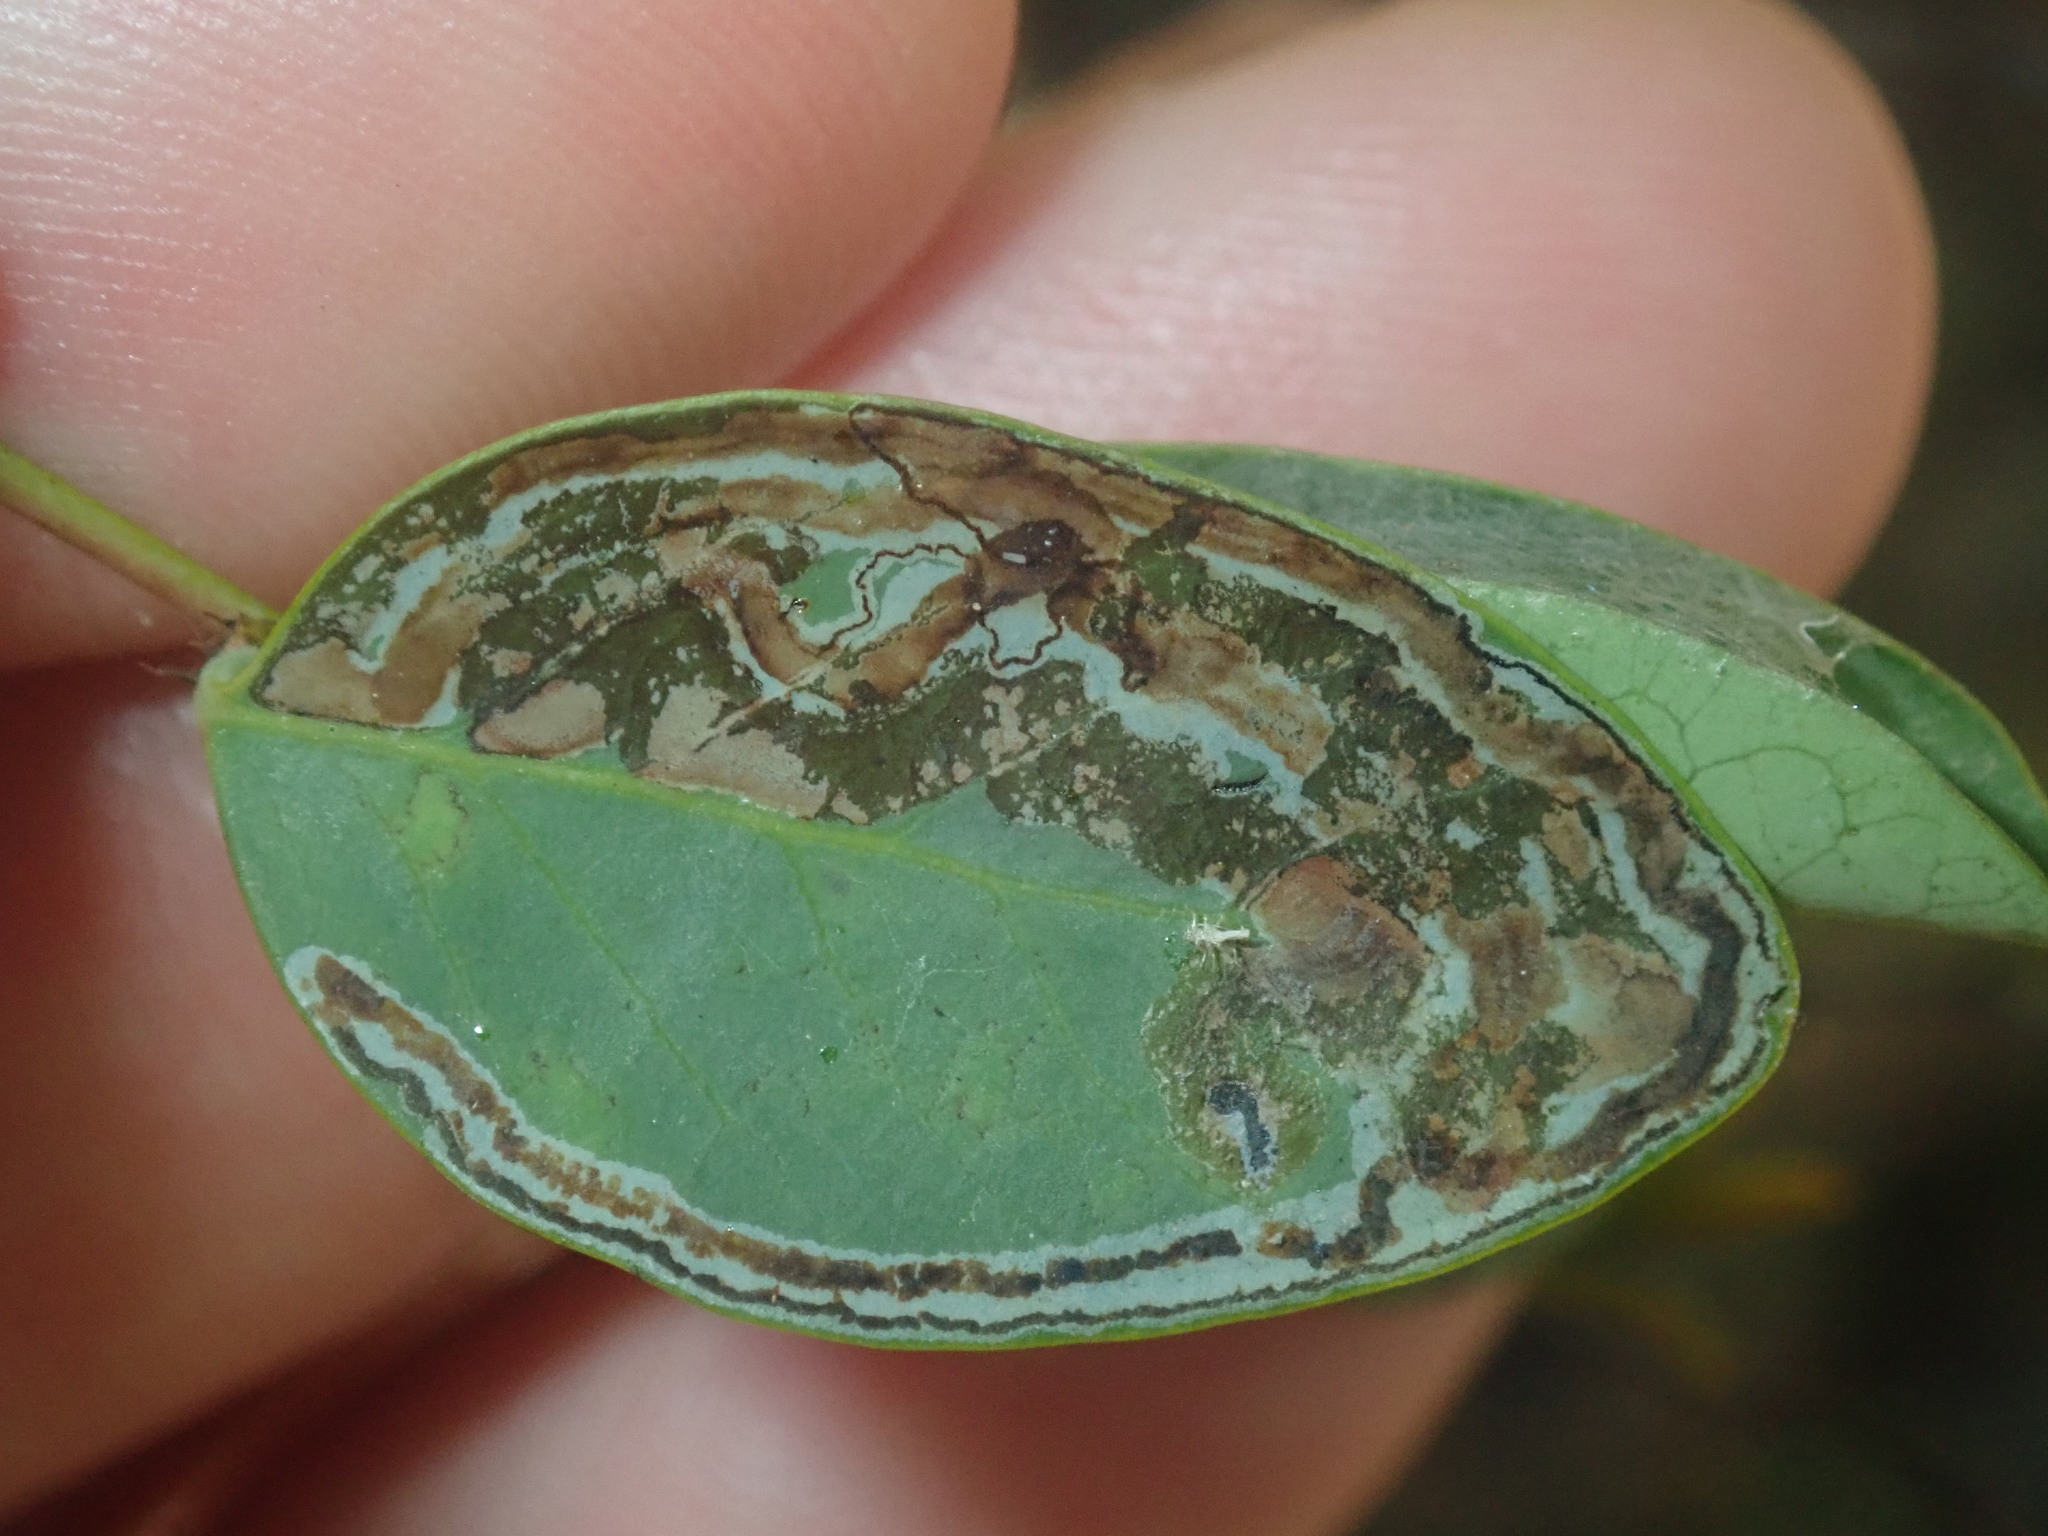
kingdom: Animalia
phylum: Arthropoda
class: Insecta
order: Lepidoptera
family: Gracillariidae
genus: Phyllocnistis
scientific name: Phyllocnistis diaugella
